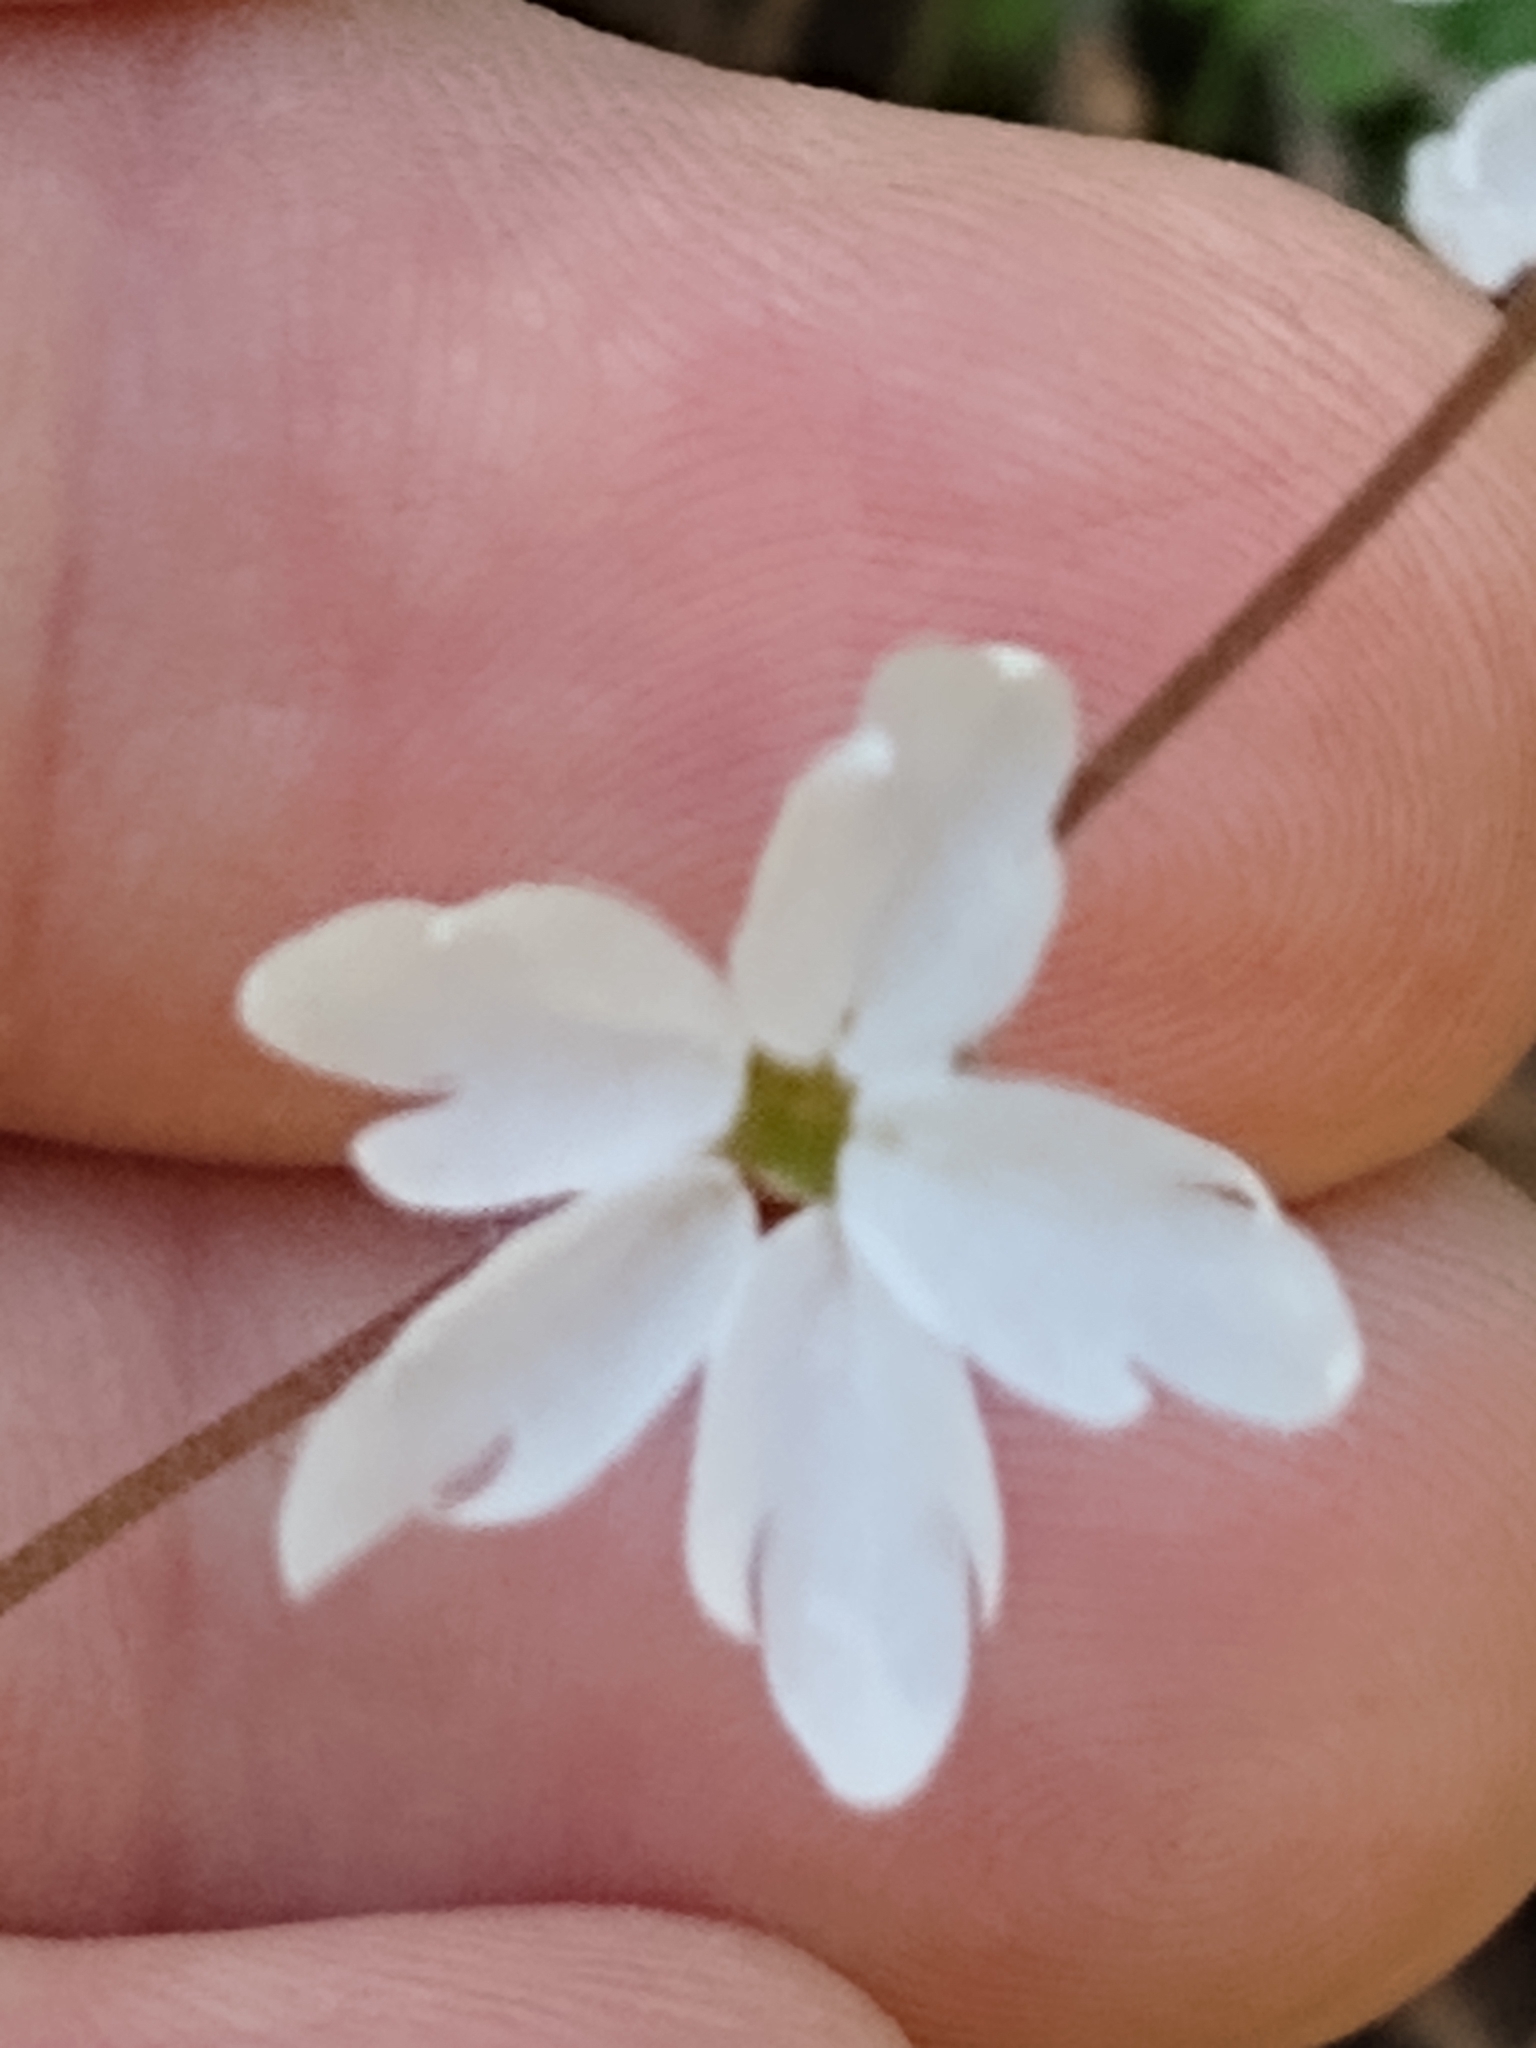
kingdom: Plantae
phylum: Tracheophyta
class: Magnoliopsida
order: Saxifragales
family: Saxifragaceae
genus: Lithophragma
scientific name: Lithophragma heterophyllum
